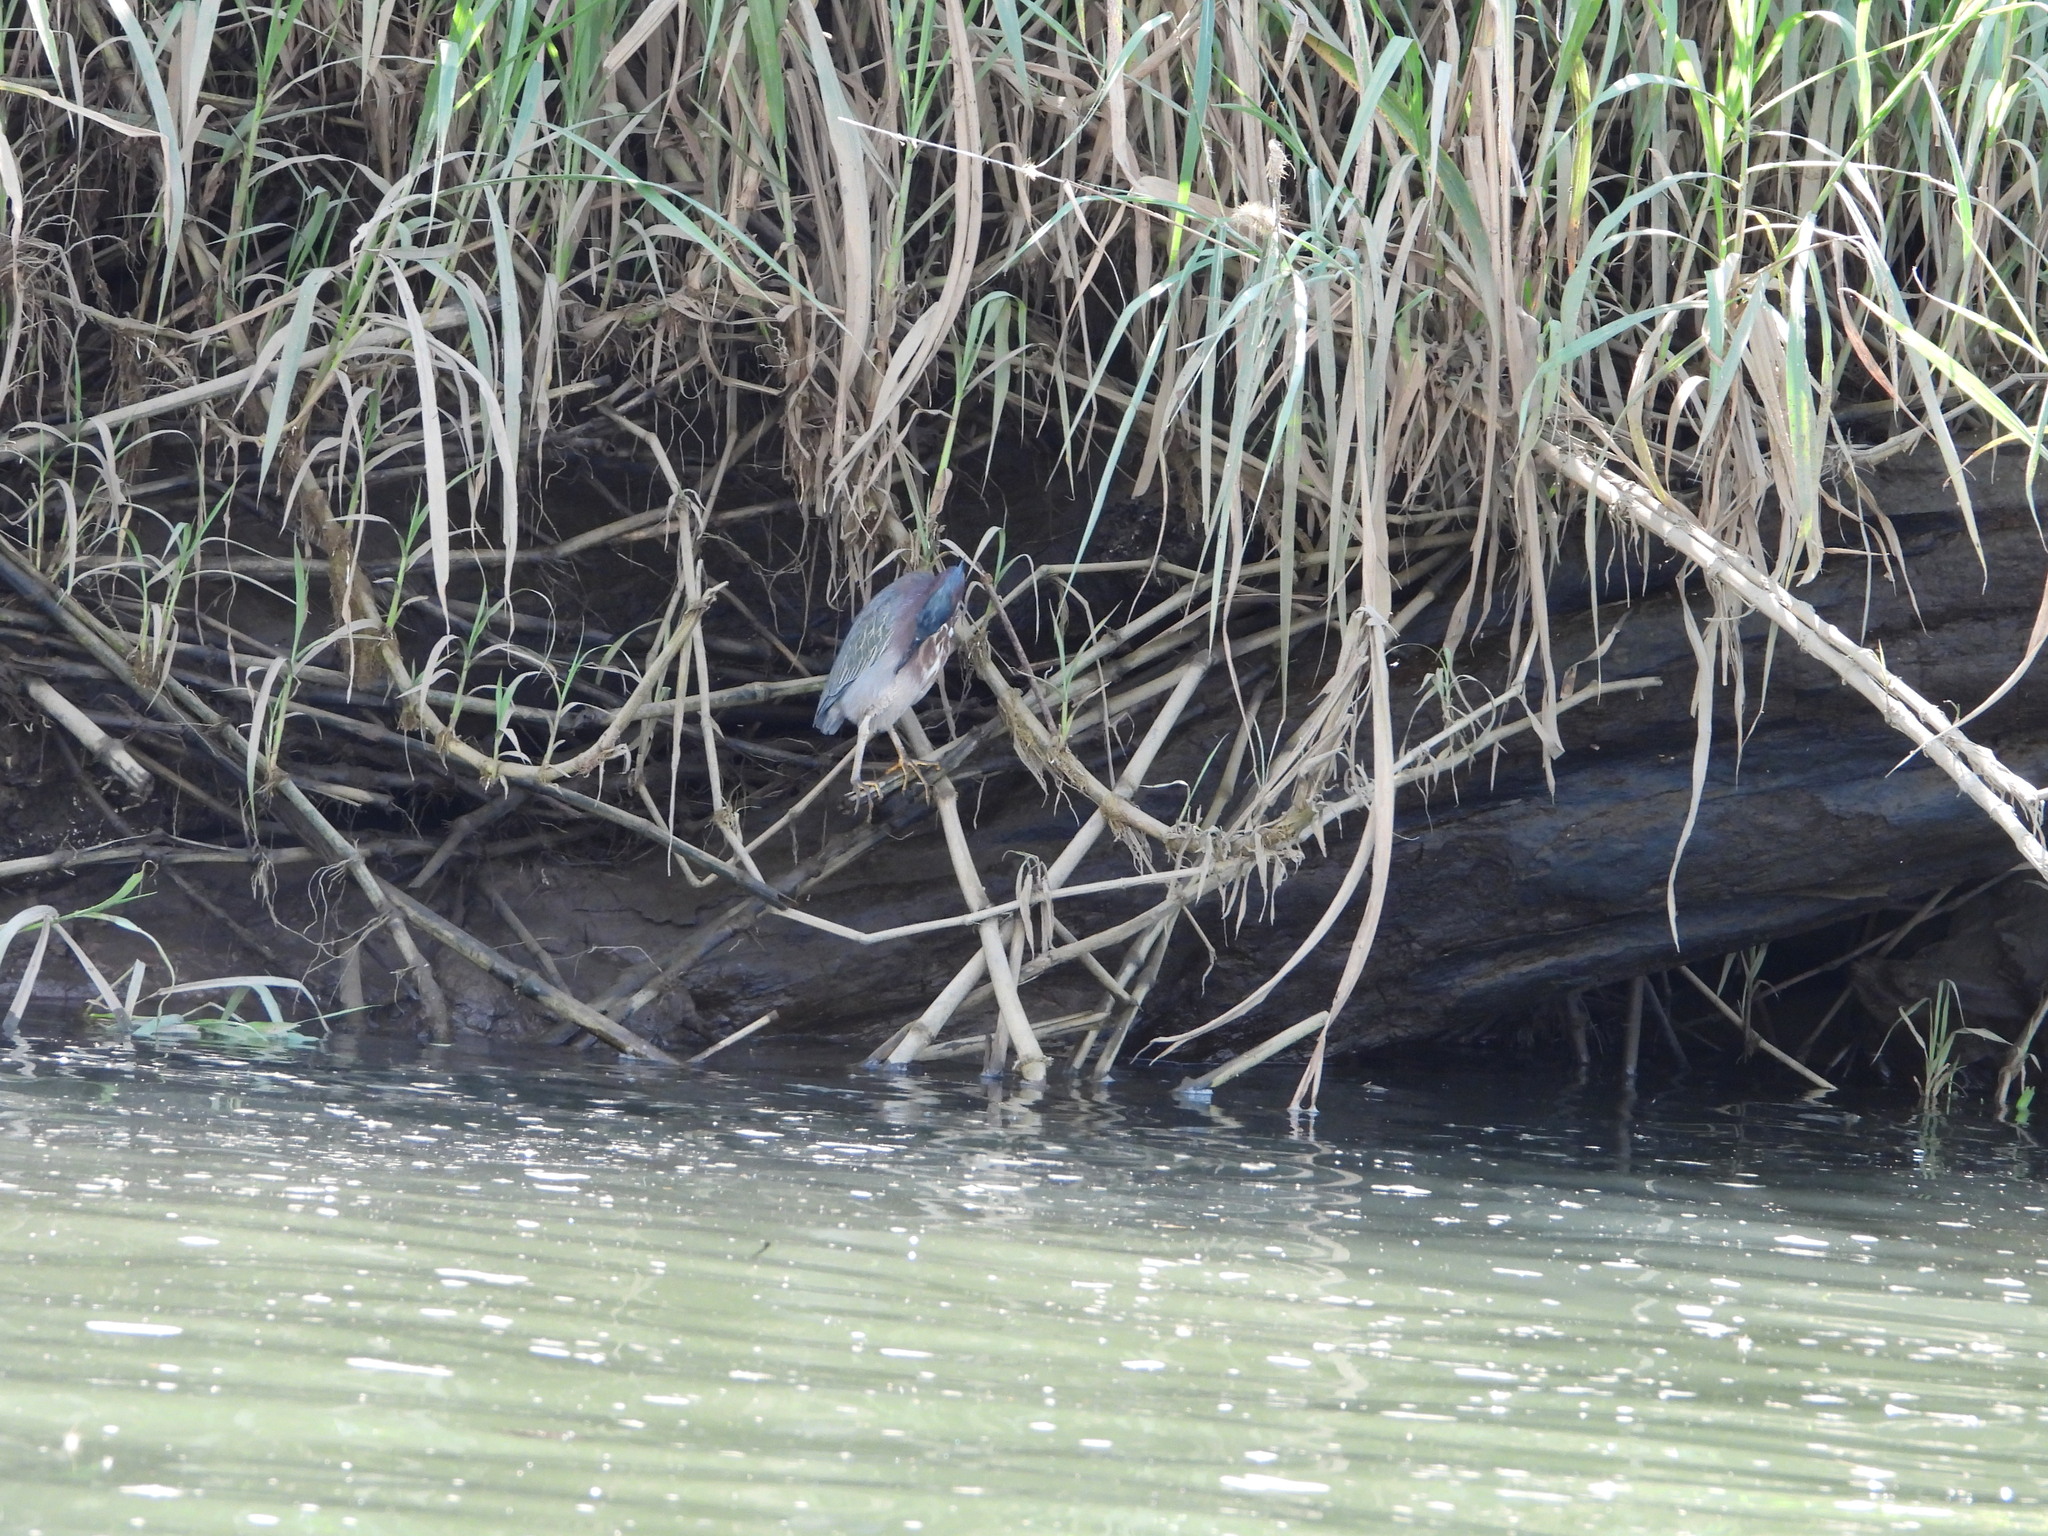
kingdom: Animalia
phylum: Chordata
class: Aves
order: Pelecaniformes
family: Ardeidae
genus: Butorides
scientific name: Butorides virescens
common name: Green heron
